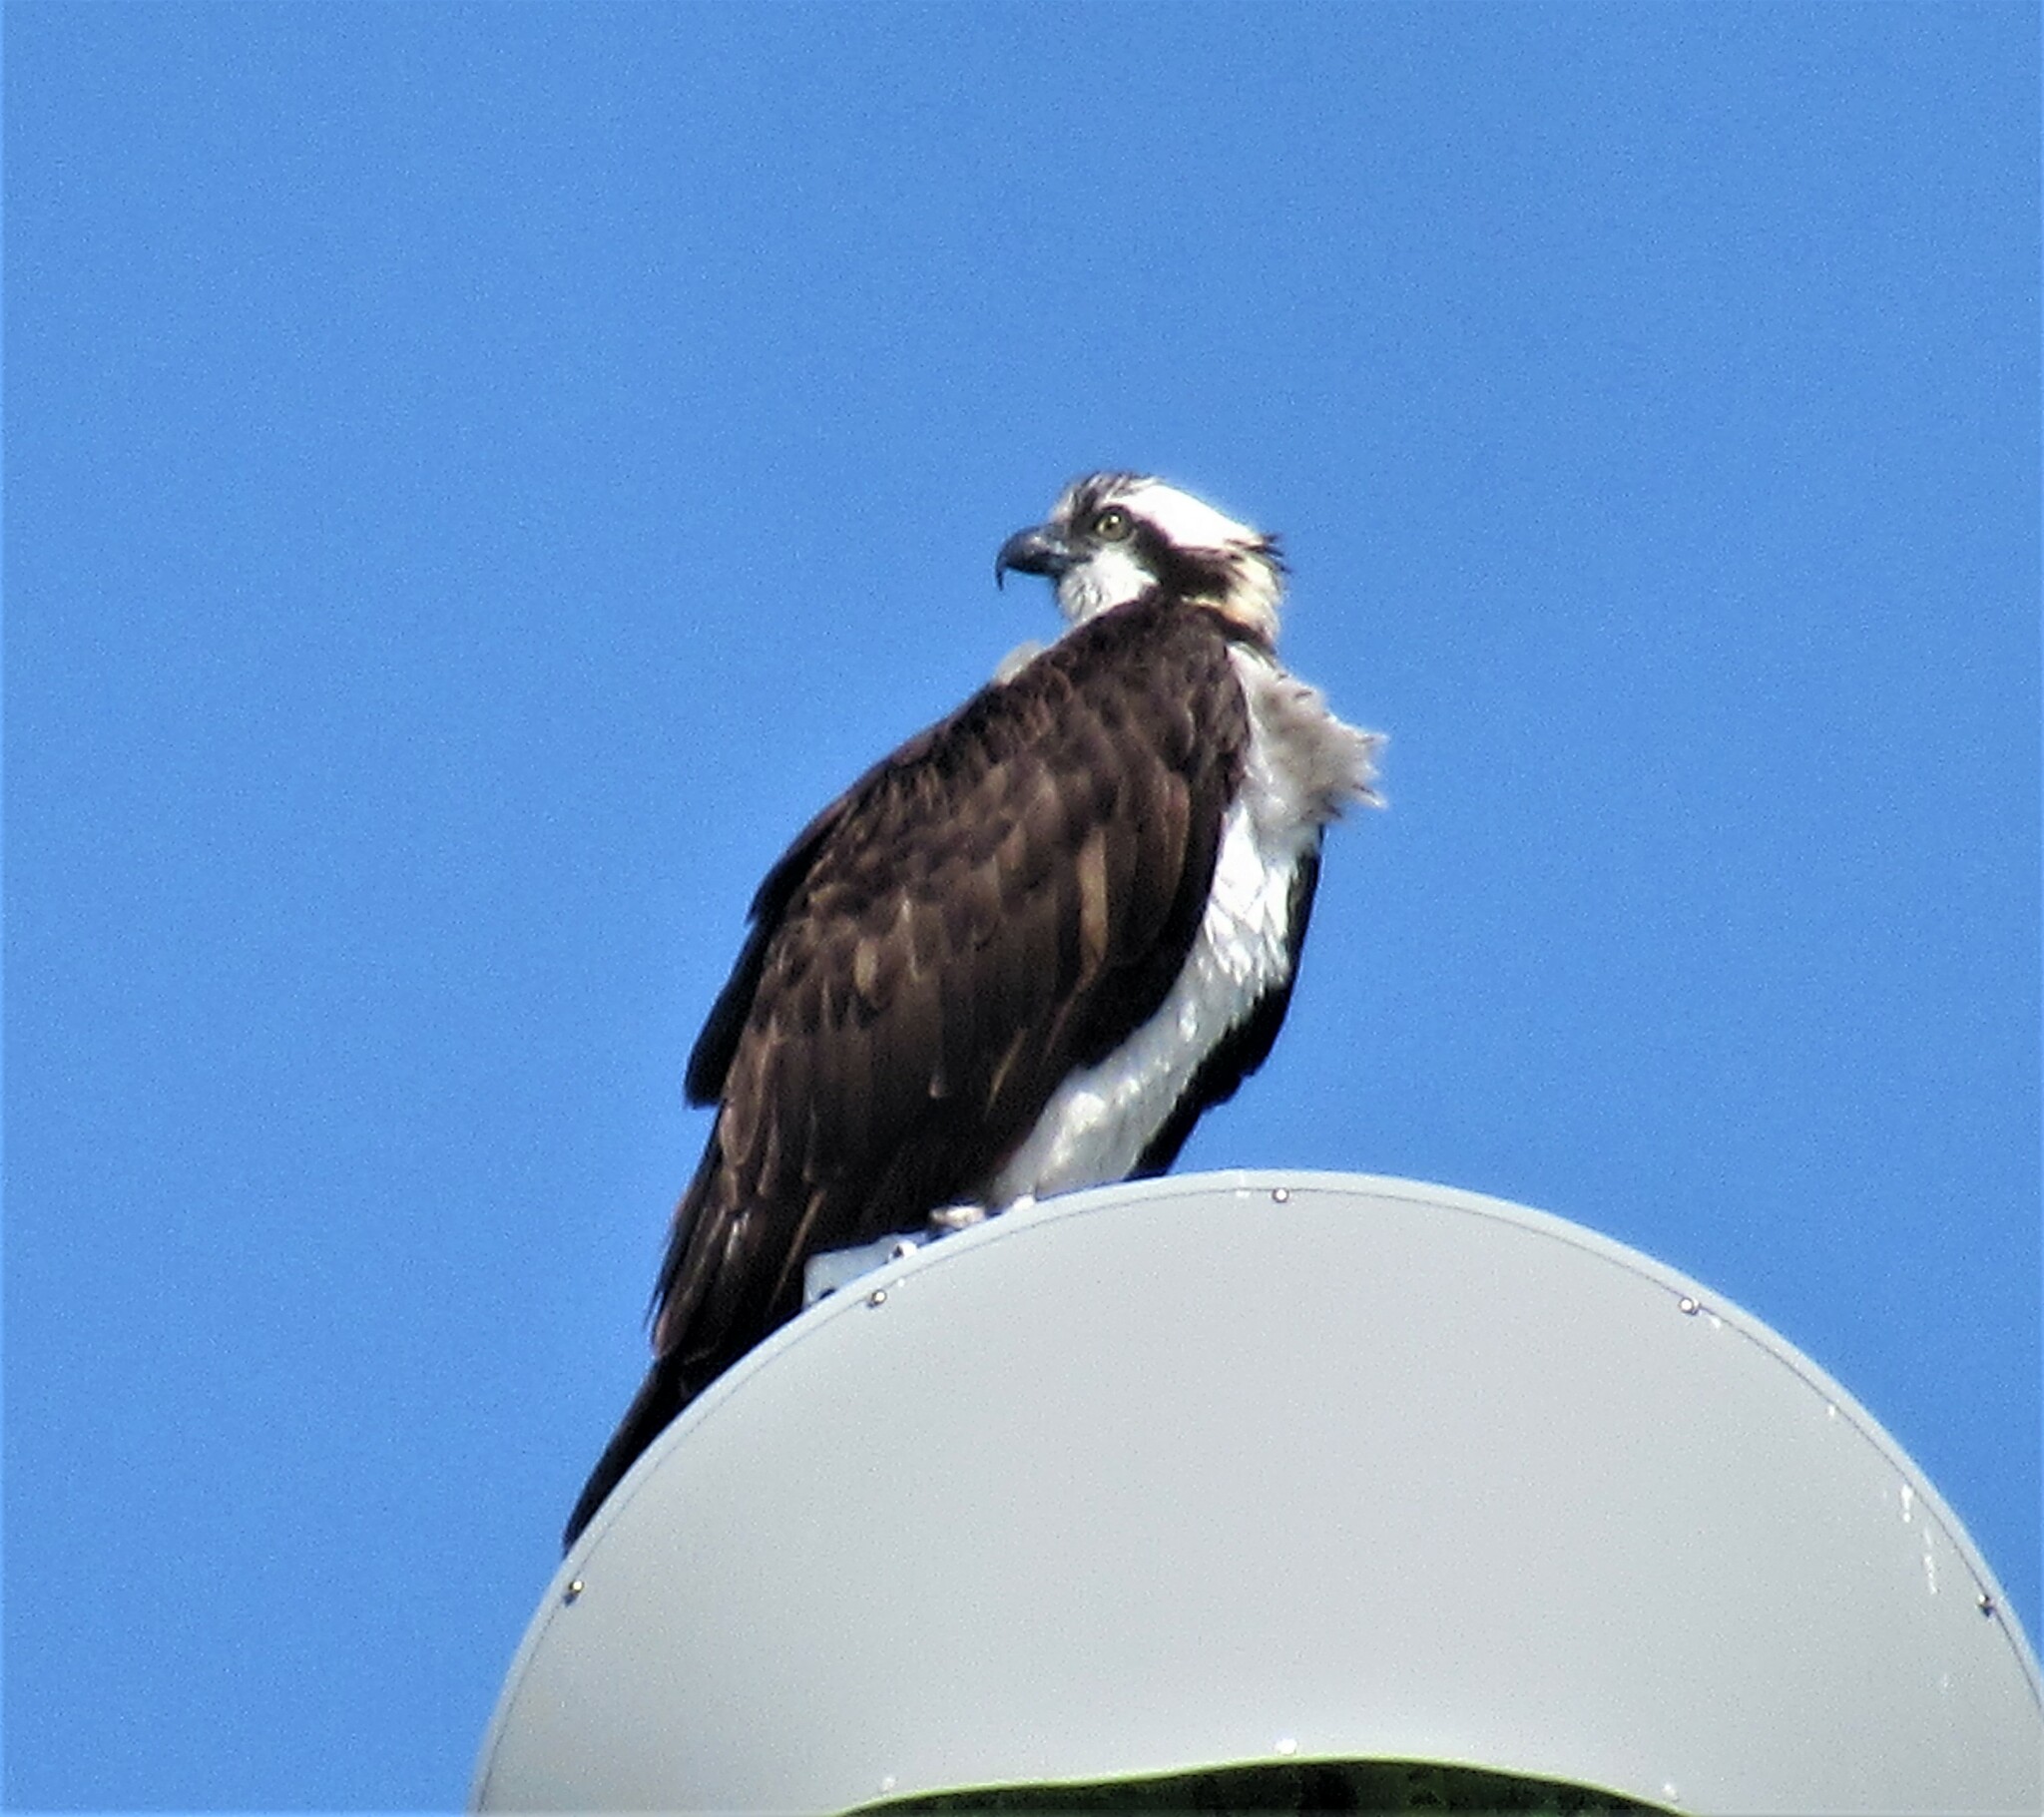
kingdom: Animalia
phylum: Chordata
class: Aves
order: Accipitriformes
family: Pandionidae
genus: Pandion
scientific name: Pandion haliaetus
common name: Osprey
